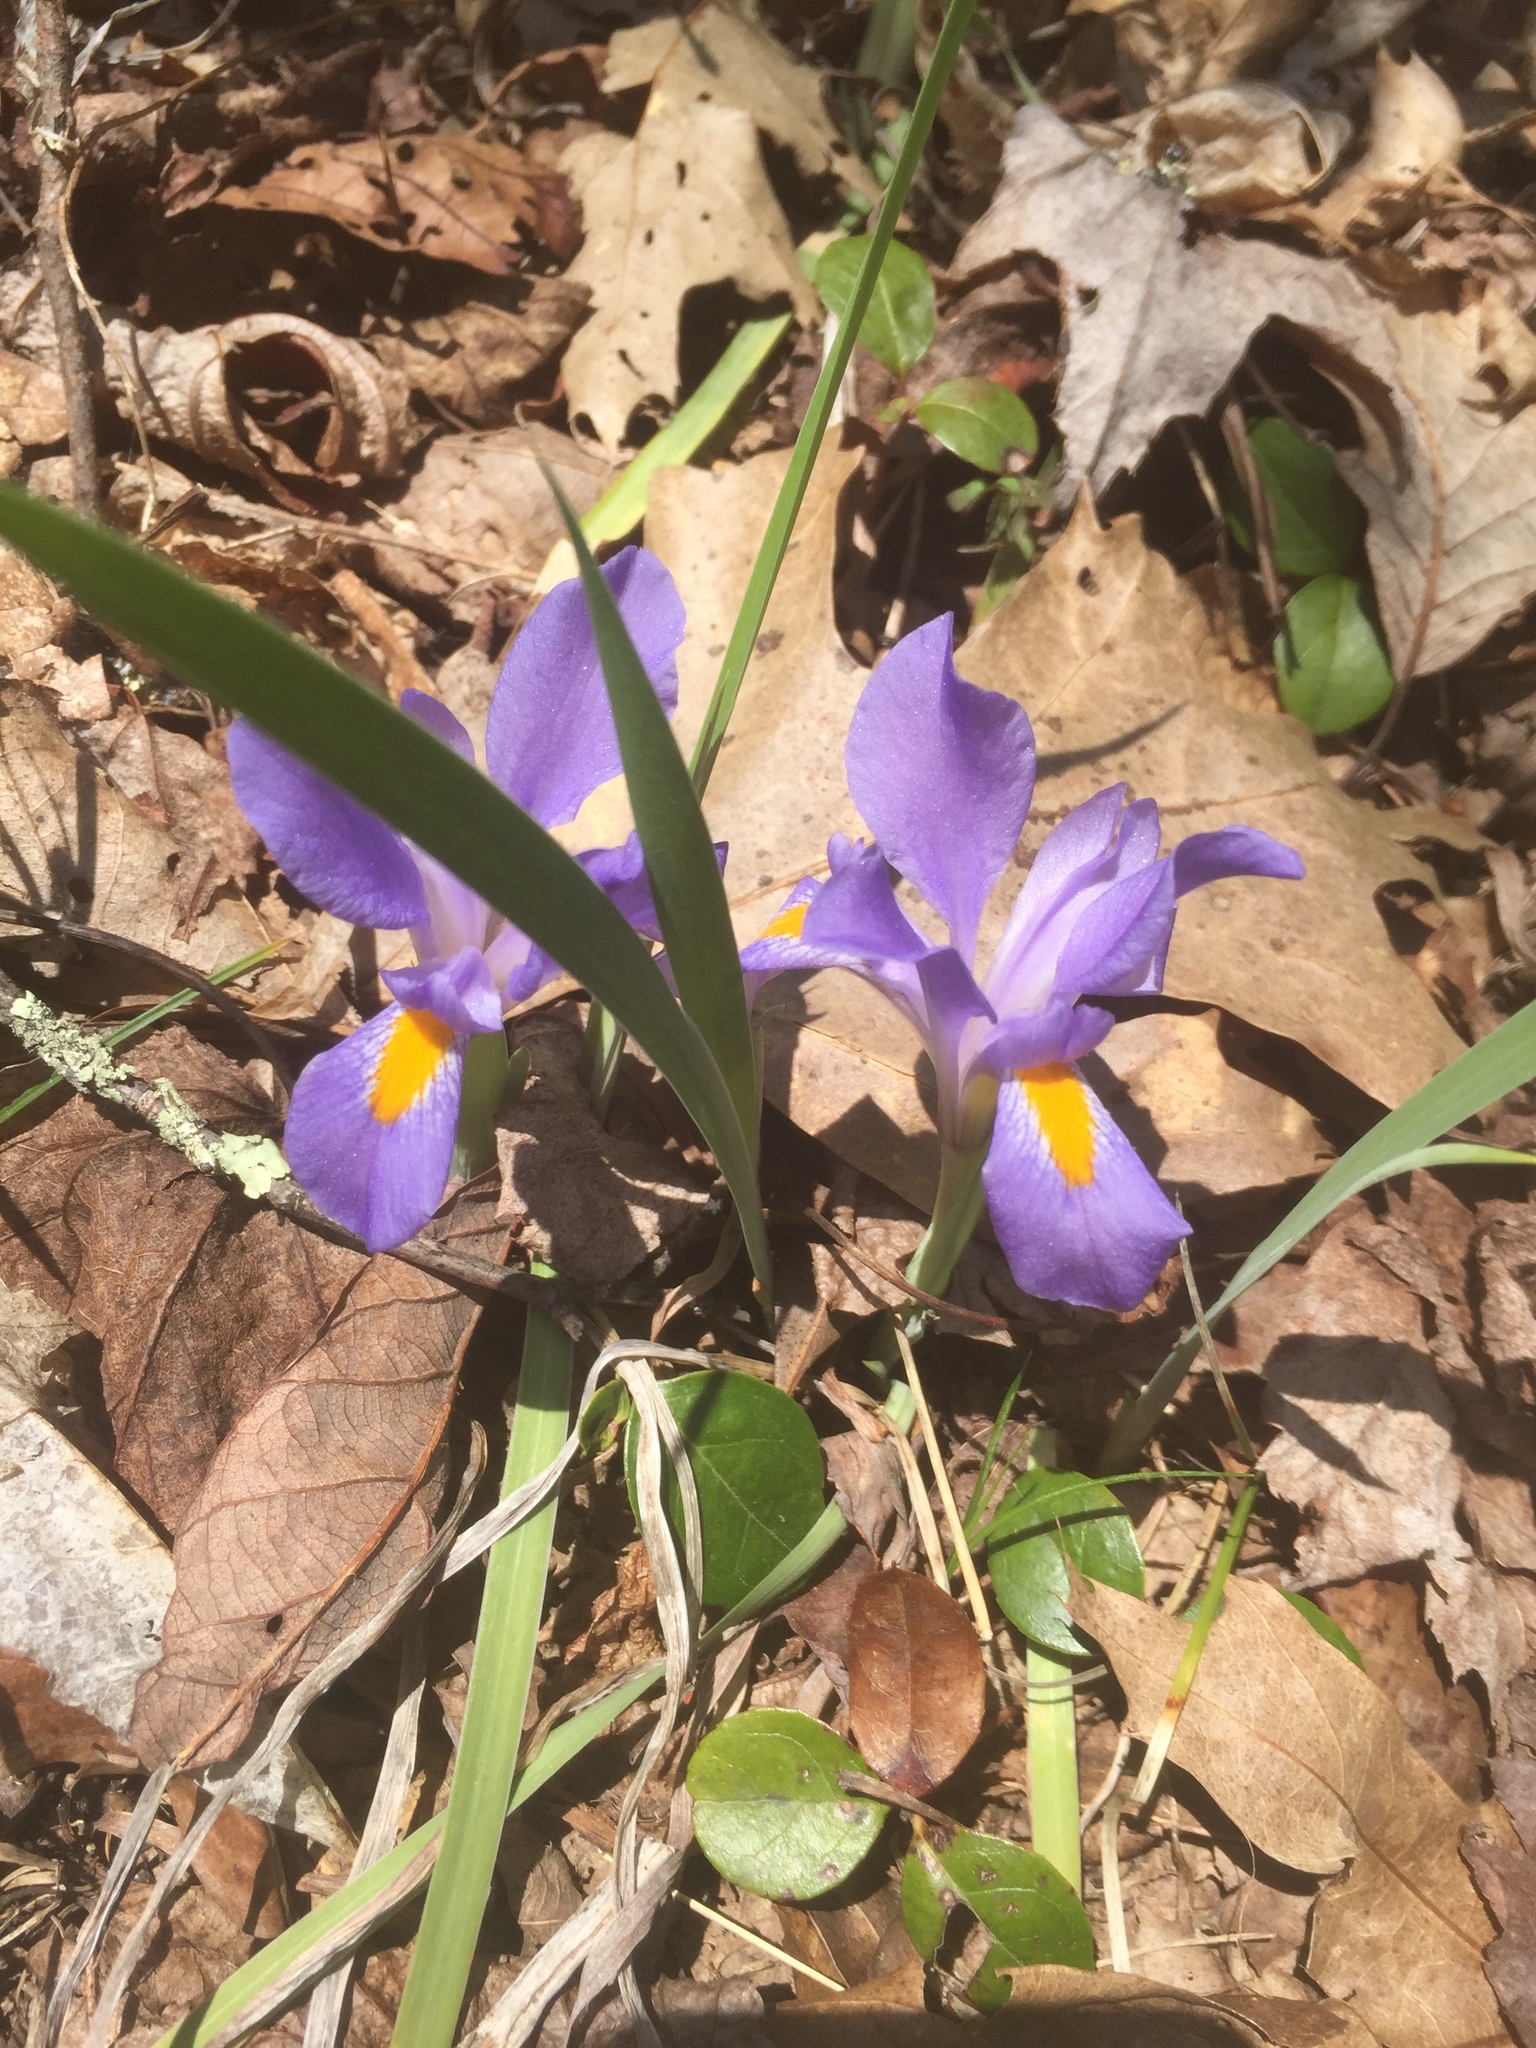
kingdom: Plantae
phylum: Tracheophyta
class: Liliopsida
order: Asparagales
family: Iridaceae
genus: Iris
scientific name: Iris verna
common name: Dwarf iris
